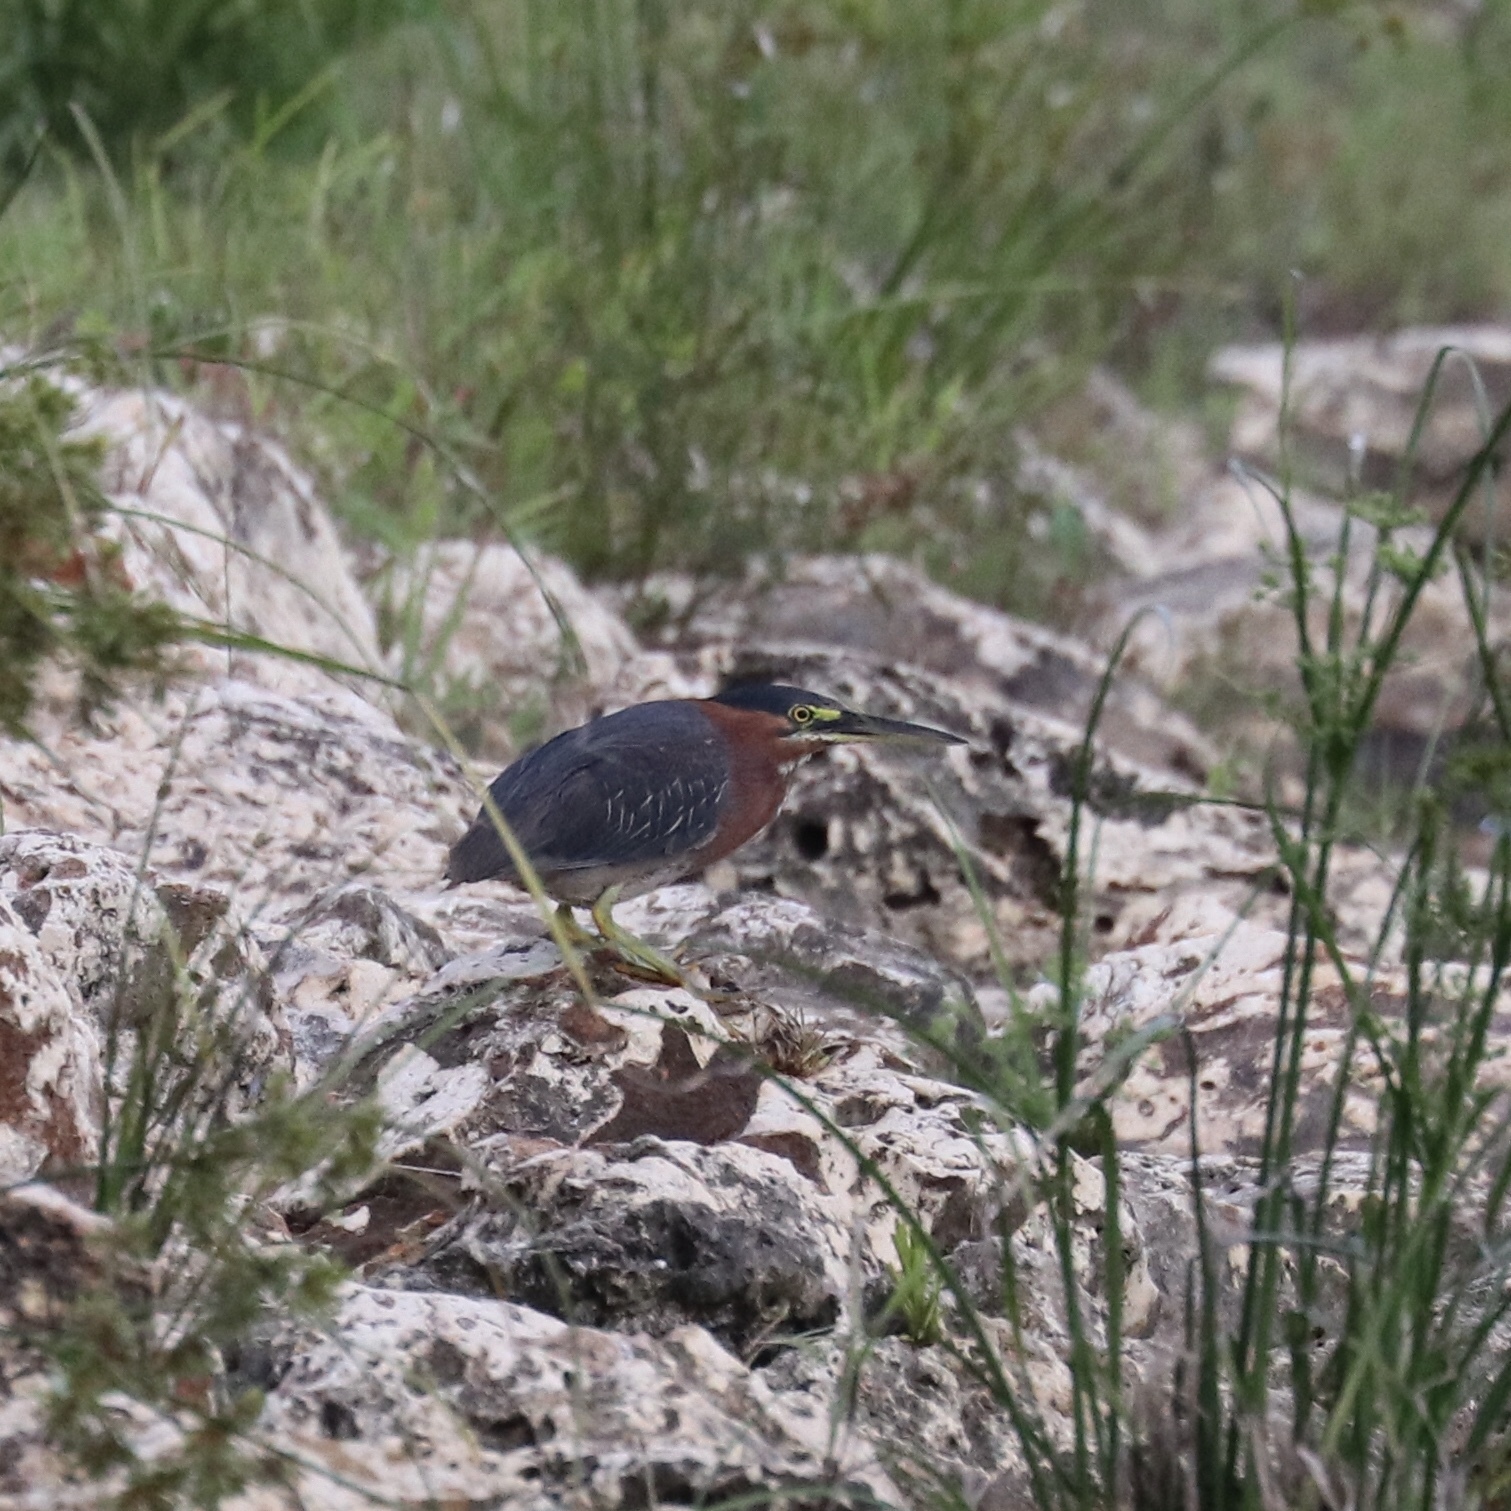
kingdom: Animalia
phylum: Chordata
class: Aves
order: Pelecaniformes
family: Ardeidae
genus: Butorides
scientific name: Butorides virescens
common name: Green heron
